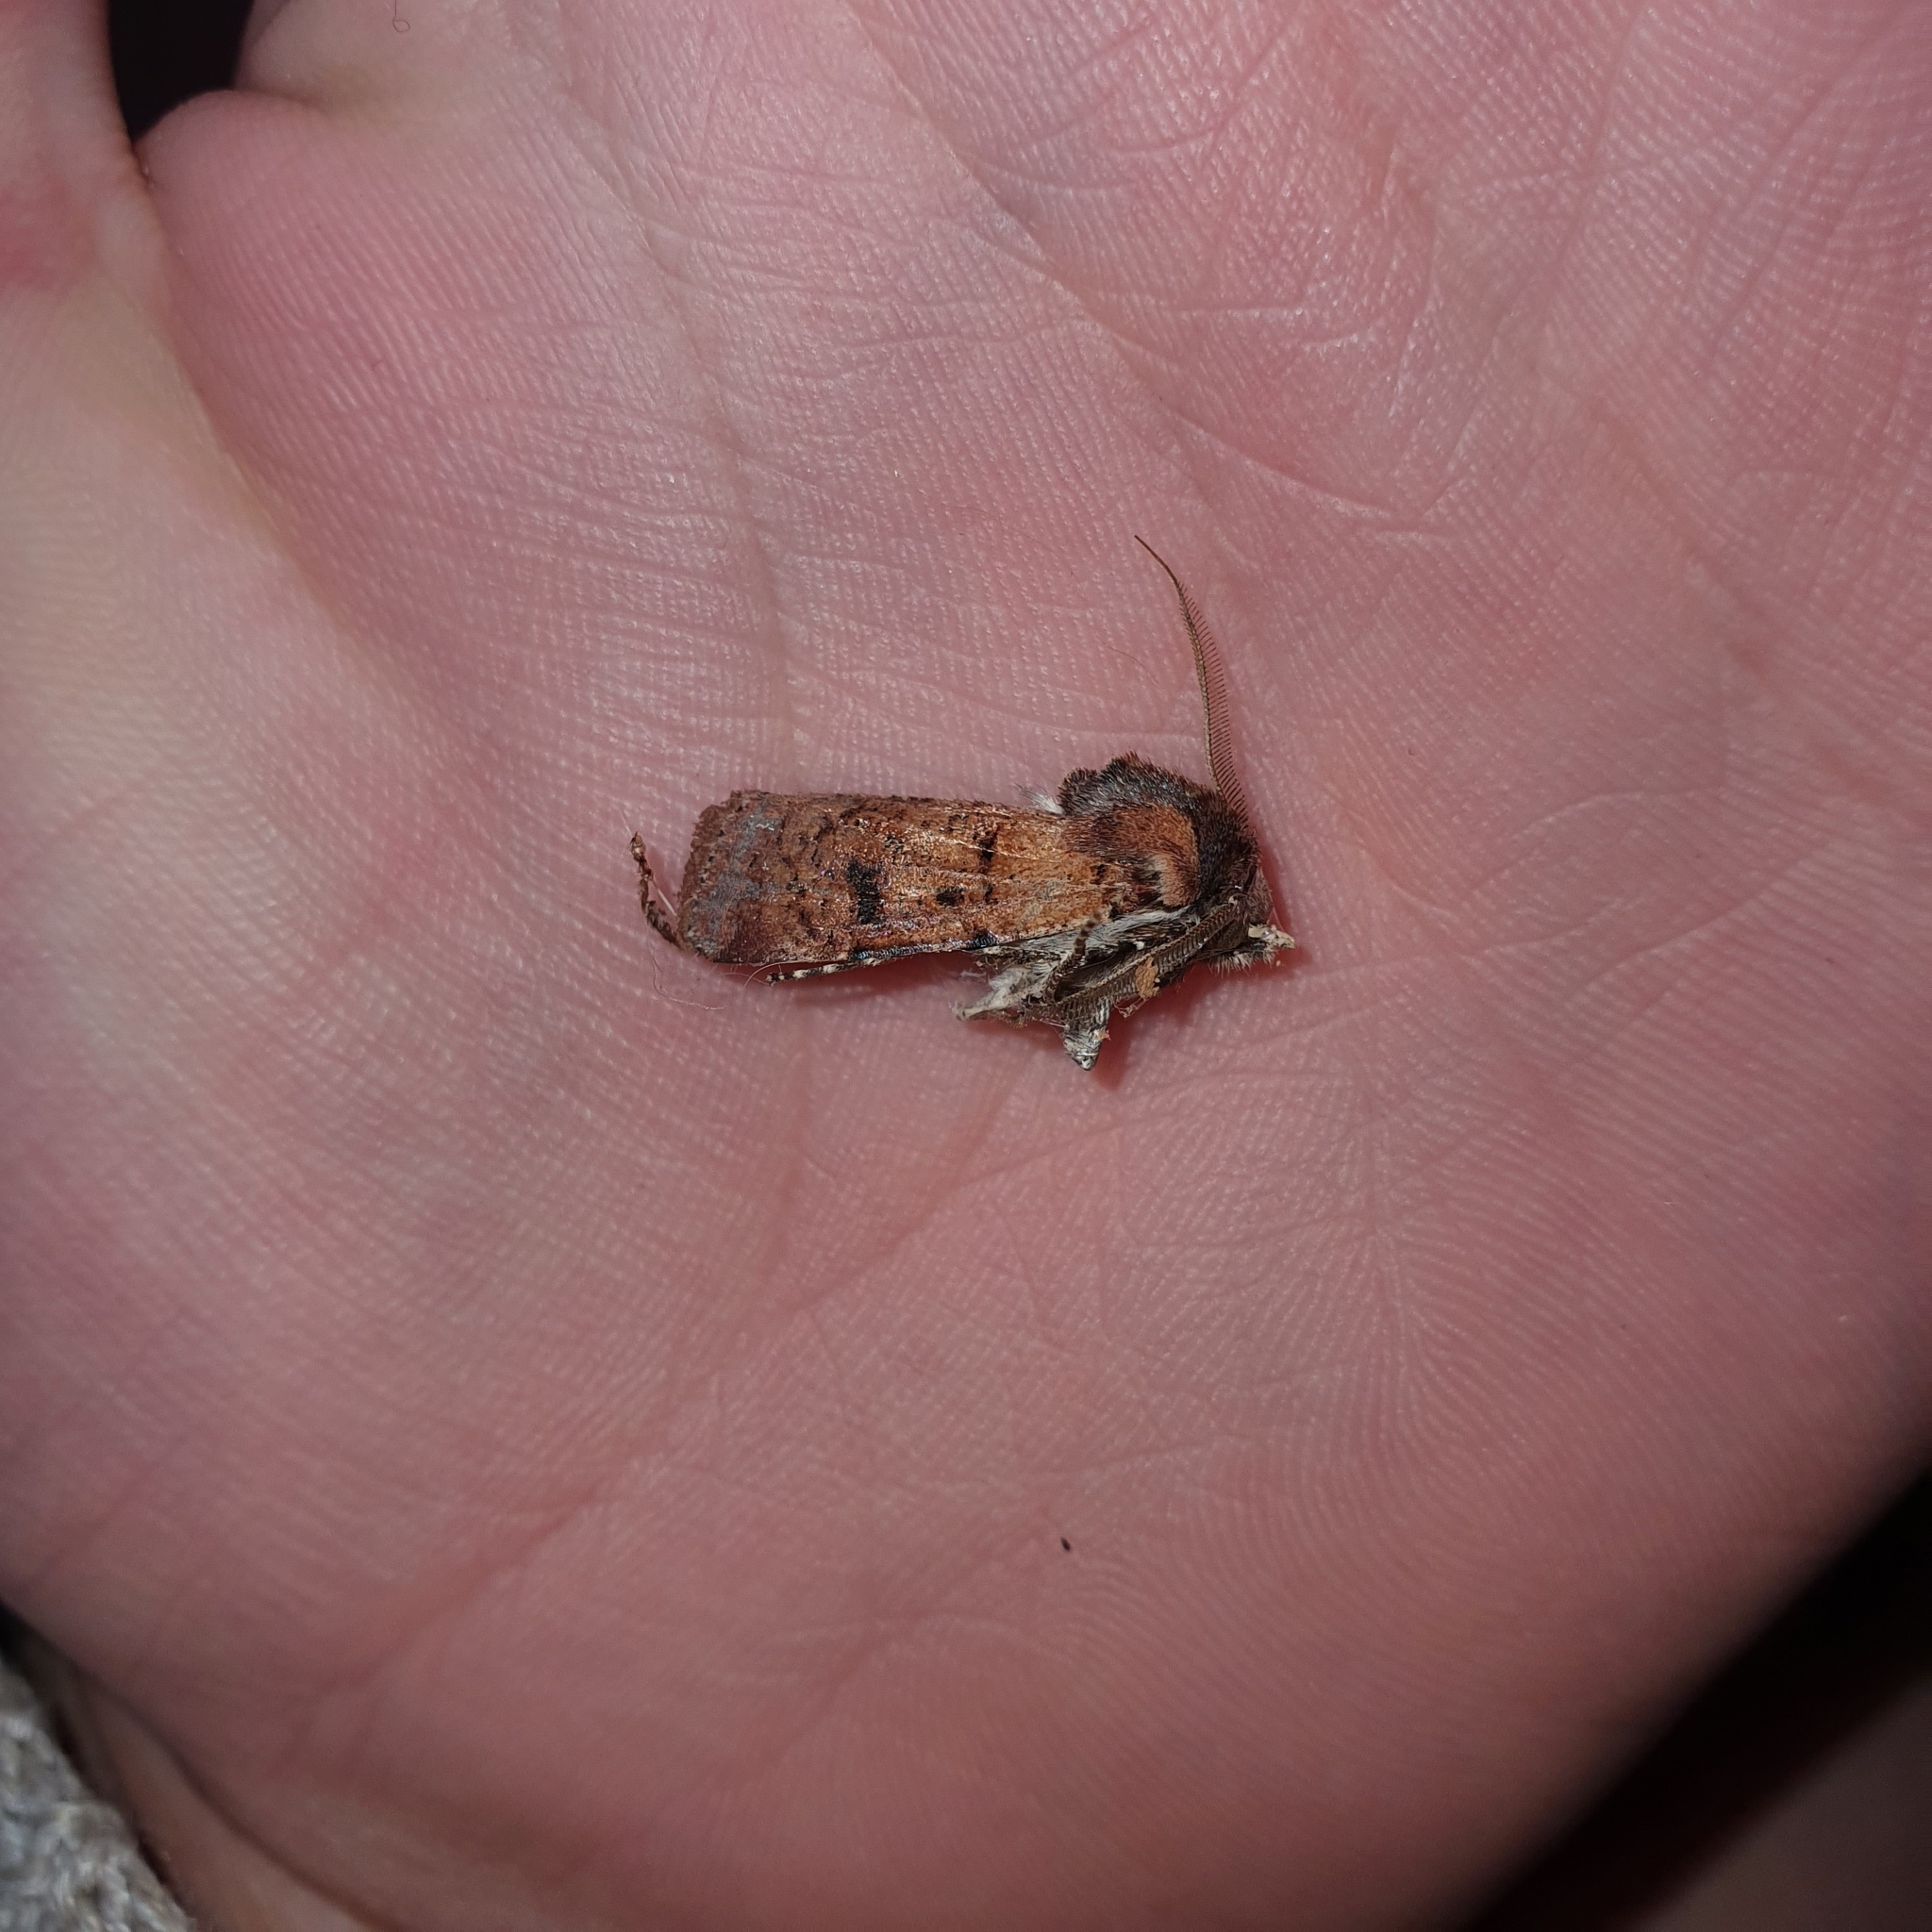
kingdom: Animalia
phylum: Arthropoda
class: Insecta
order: Lepidoptera
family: Noctuidae
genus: Agrotis
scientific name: Agrotis porphyricollis
